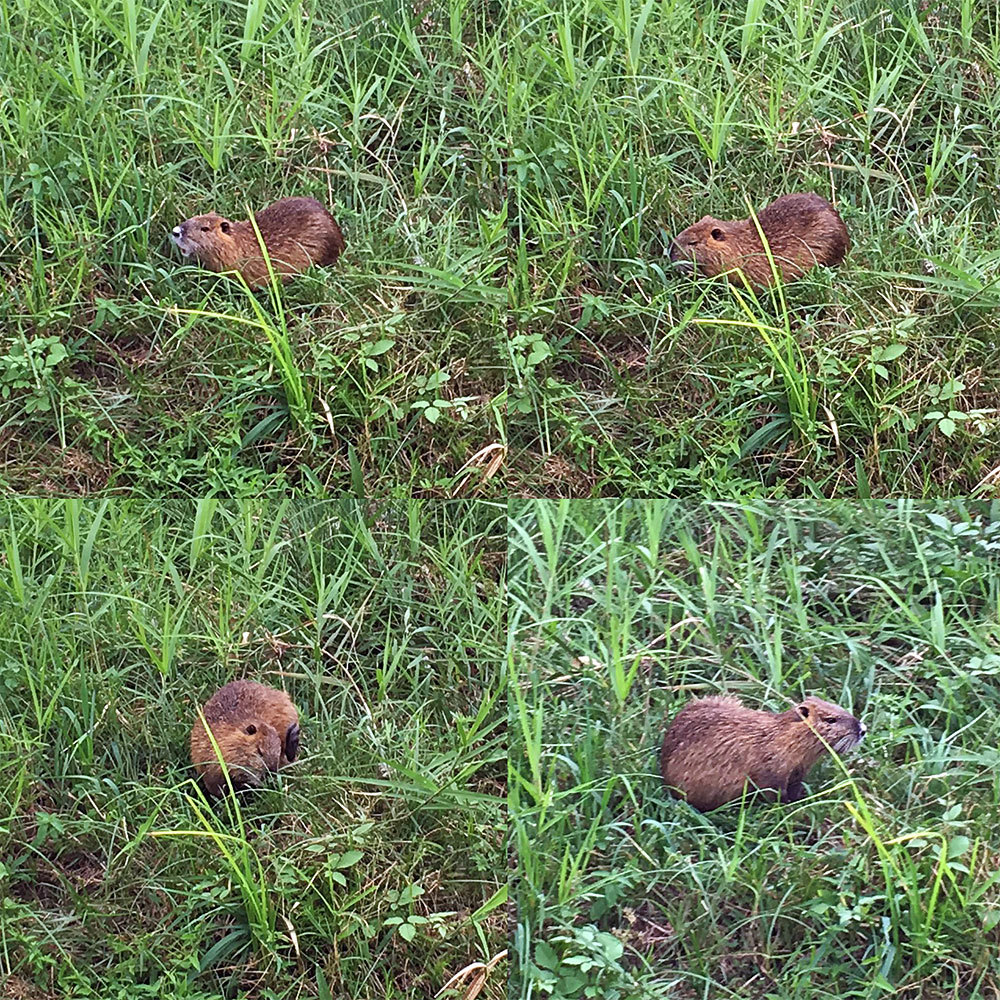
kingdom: Animalia
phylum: Chordata
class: Mammalia
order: Rodentia
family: Myocastoridae
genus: Myocastor
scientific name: Myocastor coypus
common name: Coypu
